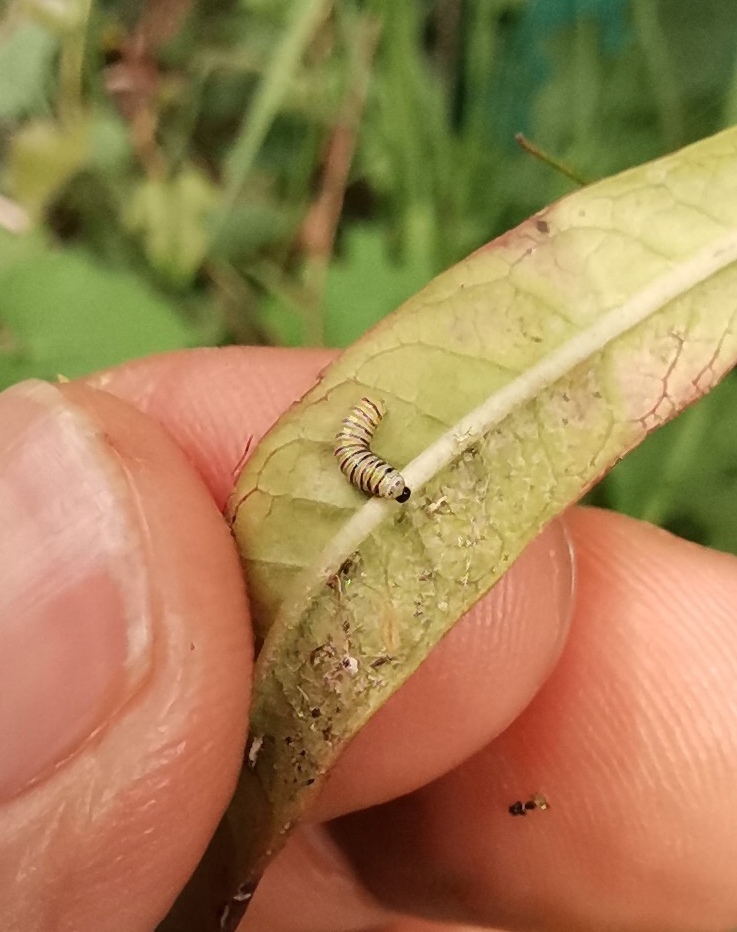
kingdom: Animalia
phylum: Arthropoda
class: Insecta
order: Lepidoptera
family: Nymphalidae
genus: Danaus
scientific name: Danaus plexippus
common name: Monarch
